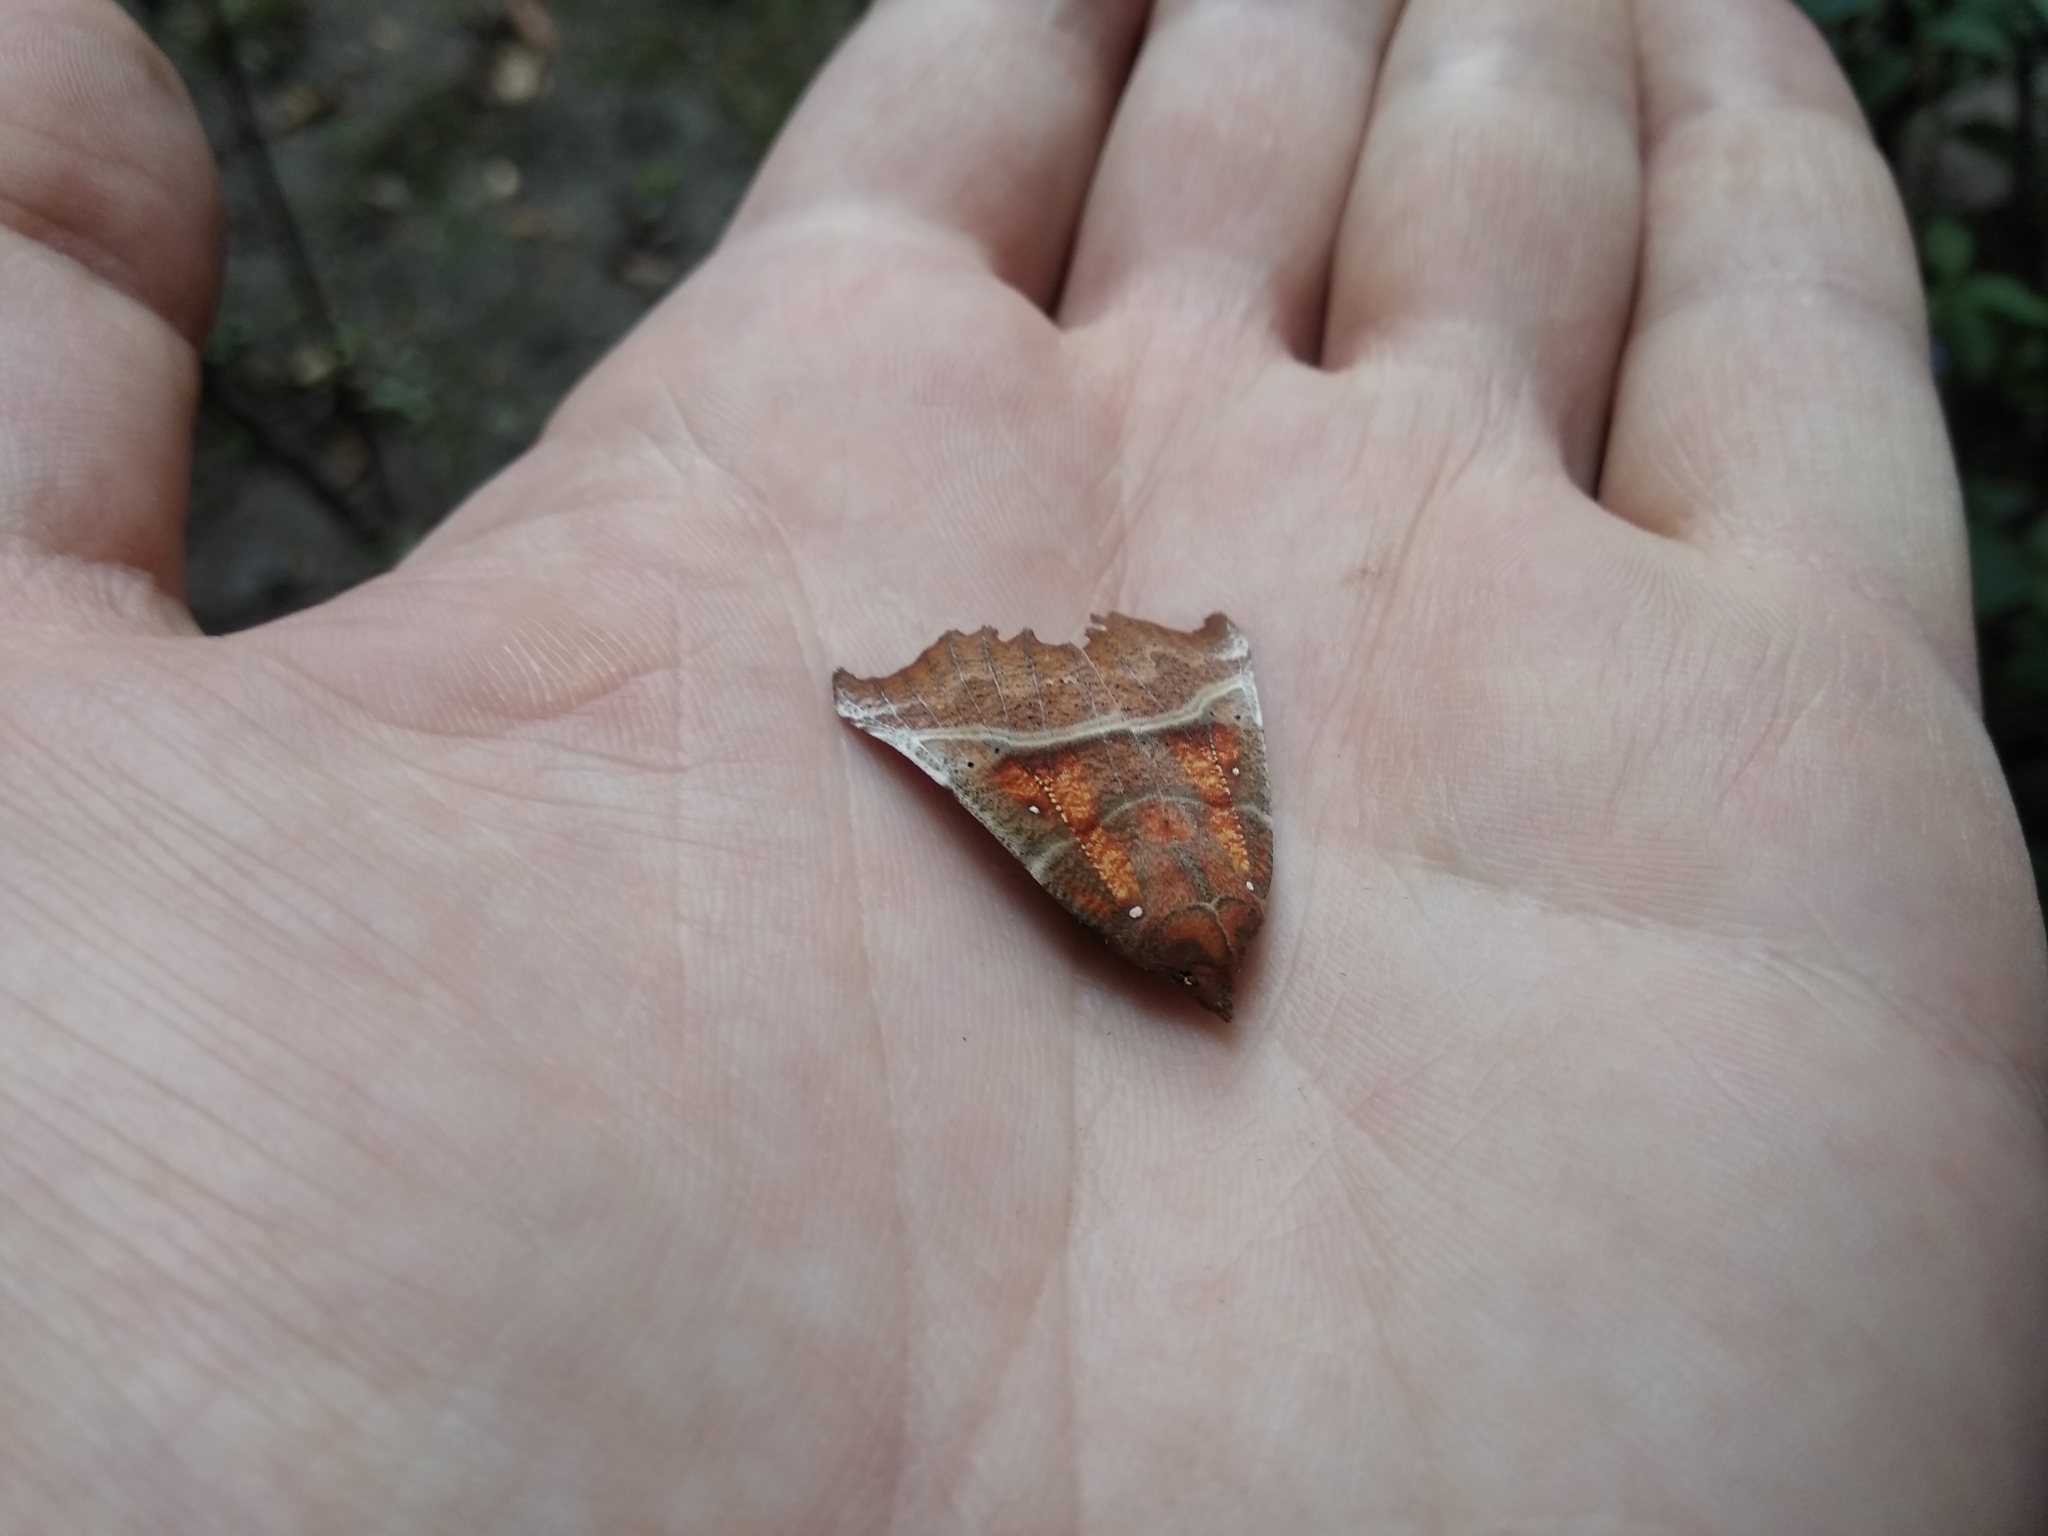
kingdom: Animalia
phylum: Arthropoda
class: Insecta
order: Lepidoptera
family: Erebidae
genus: Scoliopteryx
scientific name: Scoliopteryx libatrix
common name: Herald
